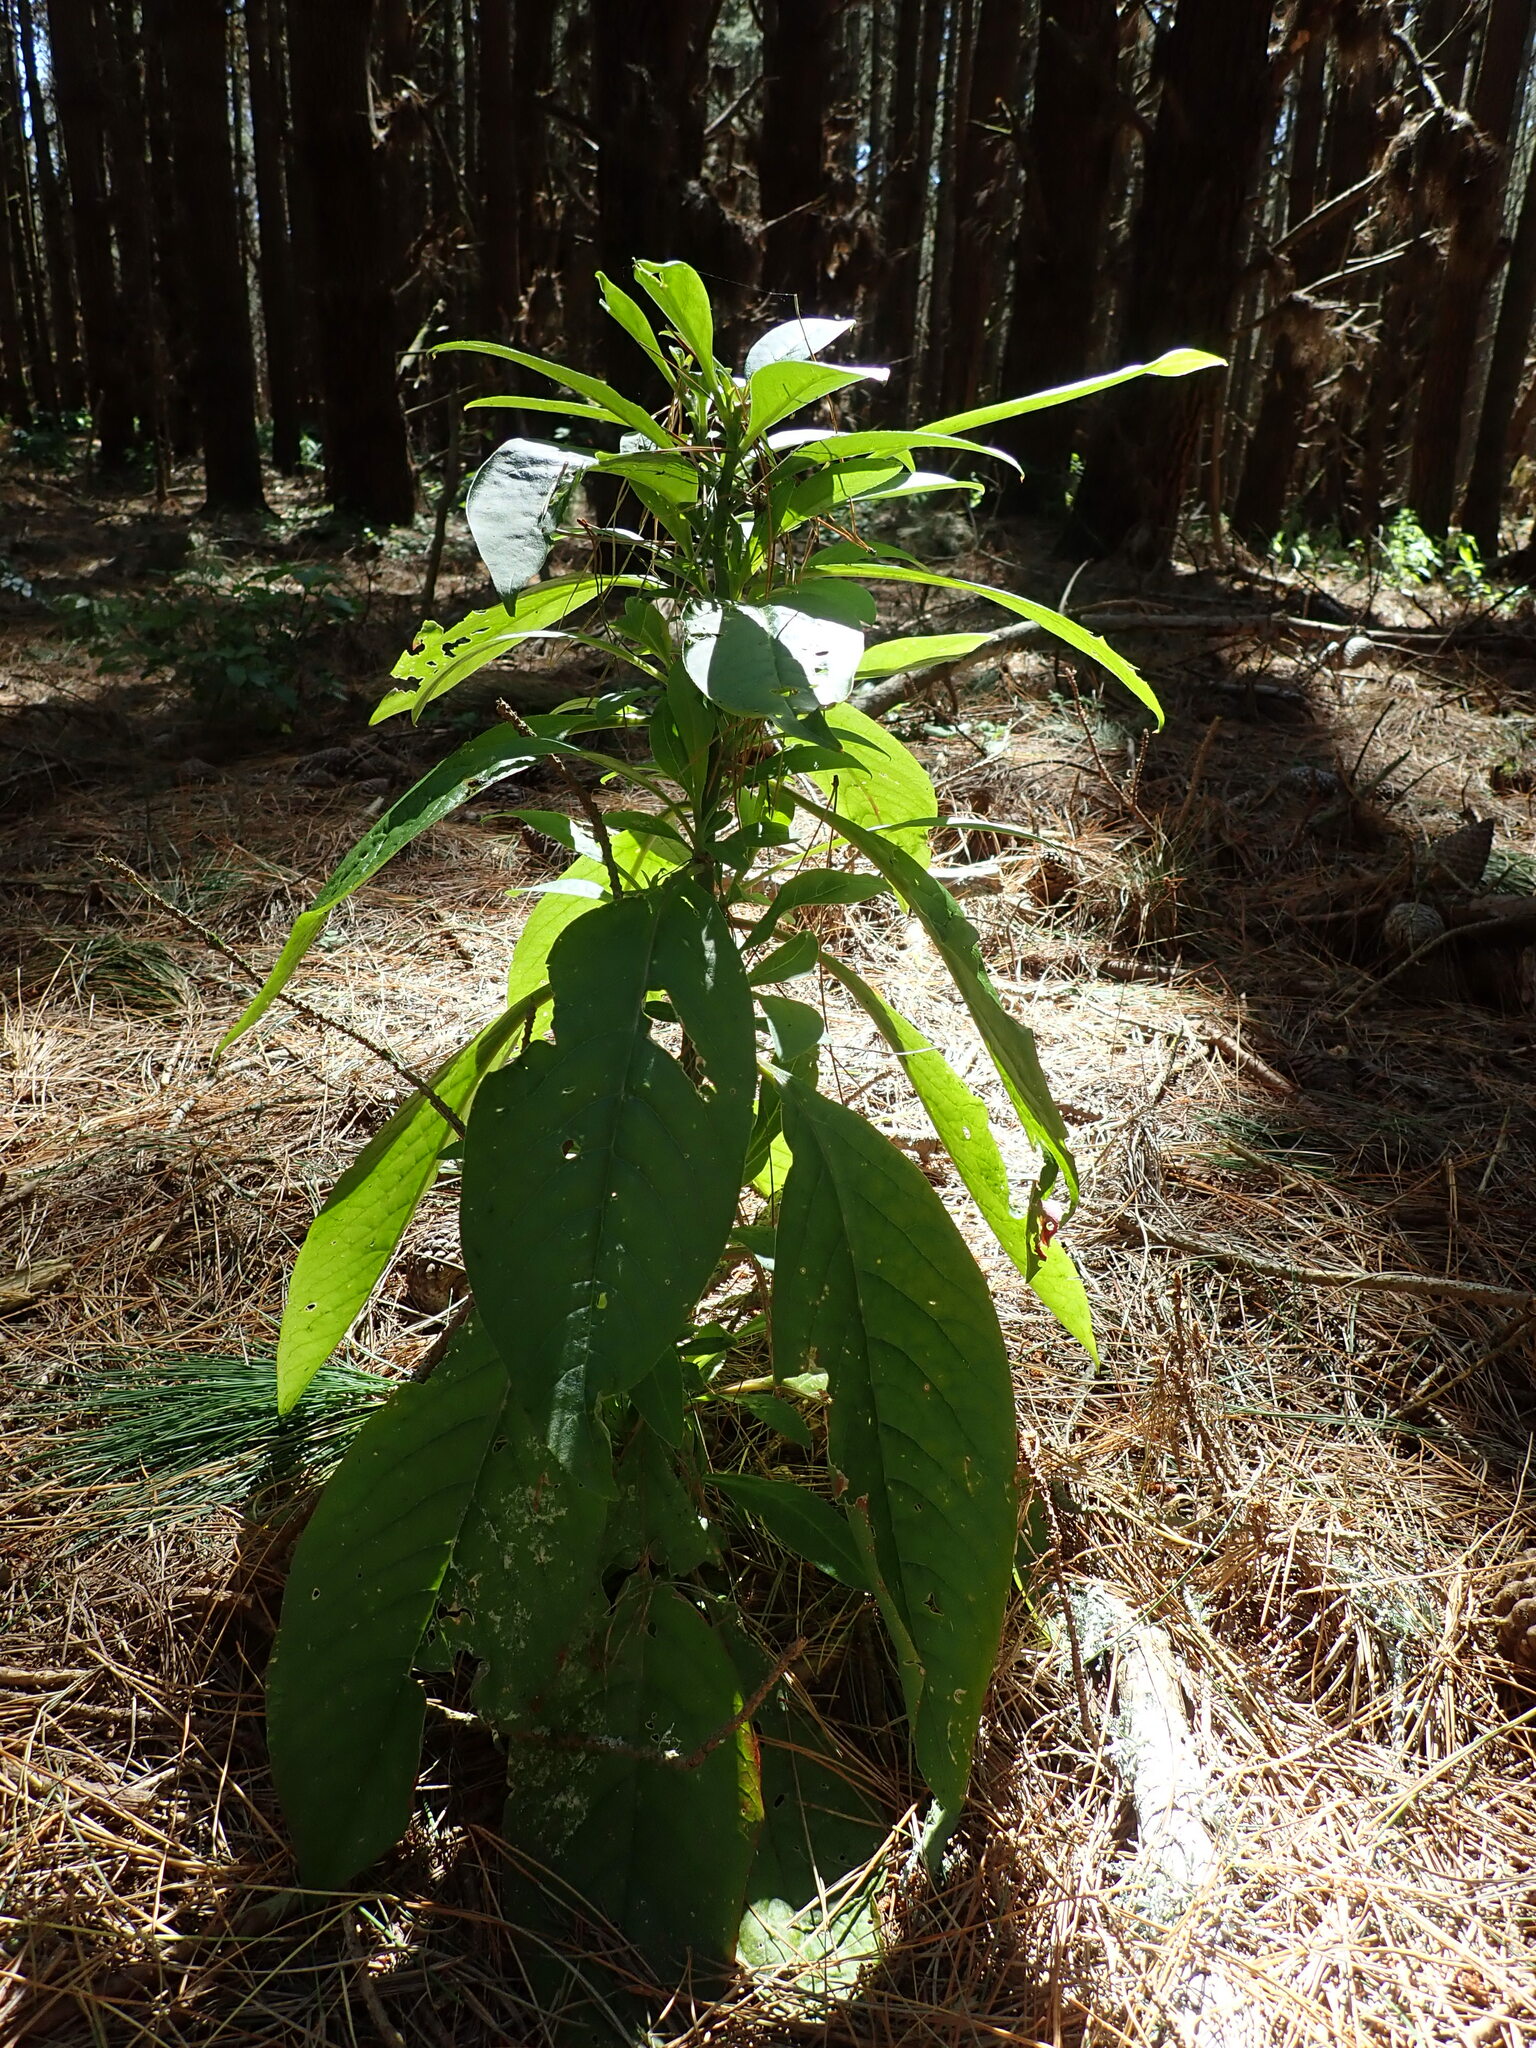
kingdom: Plantae
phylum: Tracheophyta
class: Magnoliopsida
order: Caryophyllales
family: Phytolaccaceae
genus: Phytolacca
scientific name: Phytolacca icosandra
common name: Button pokeweed
